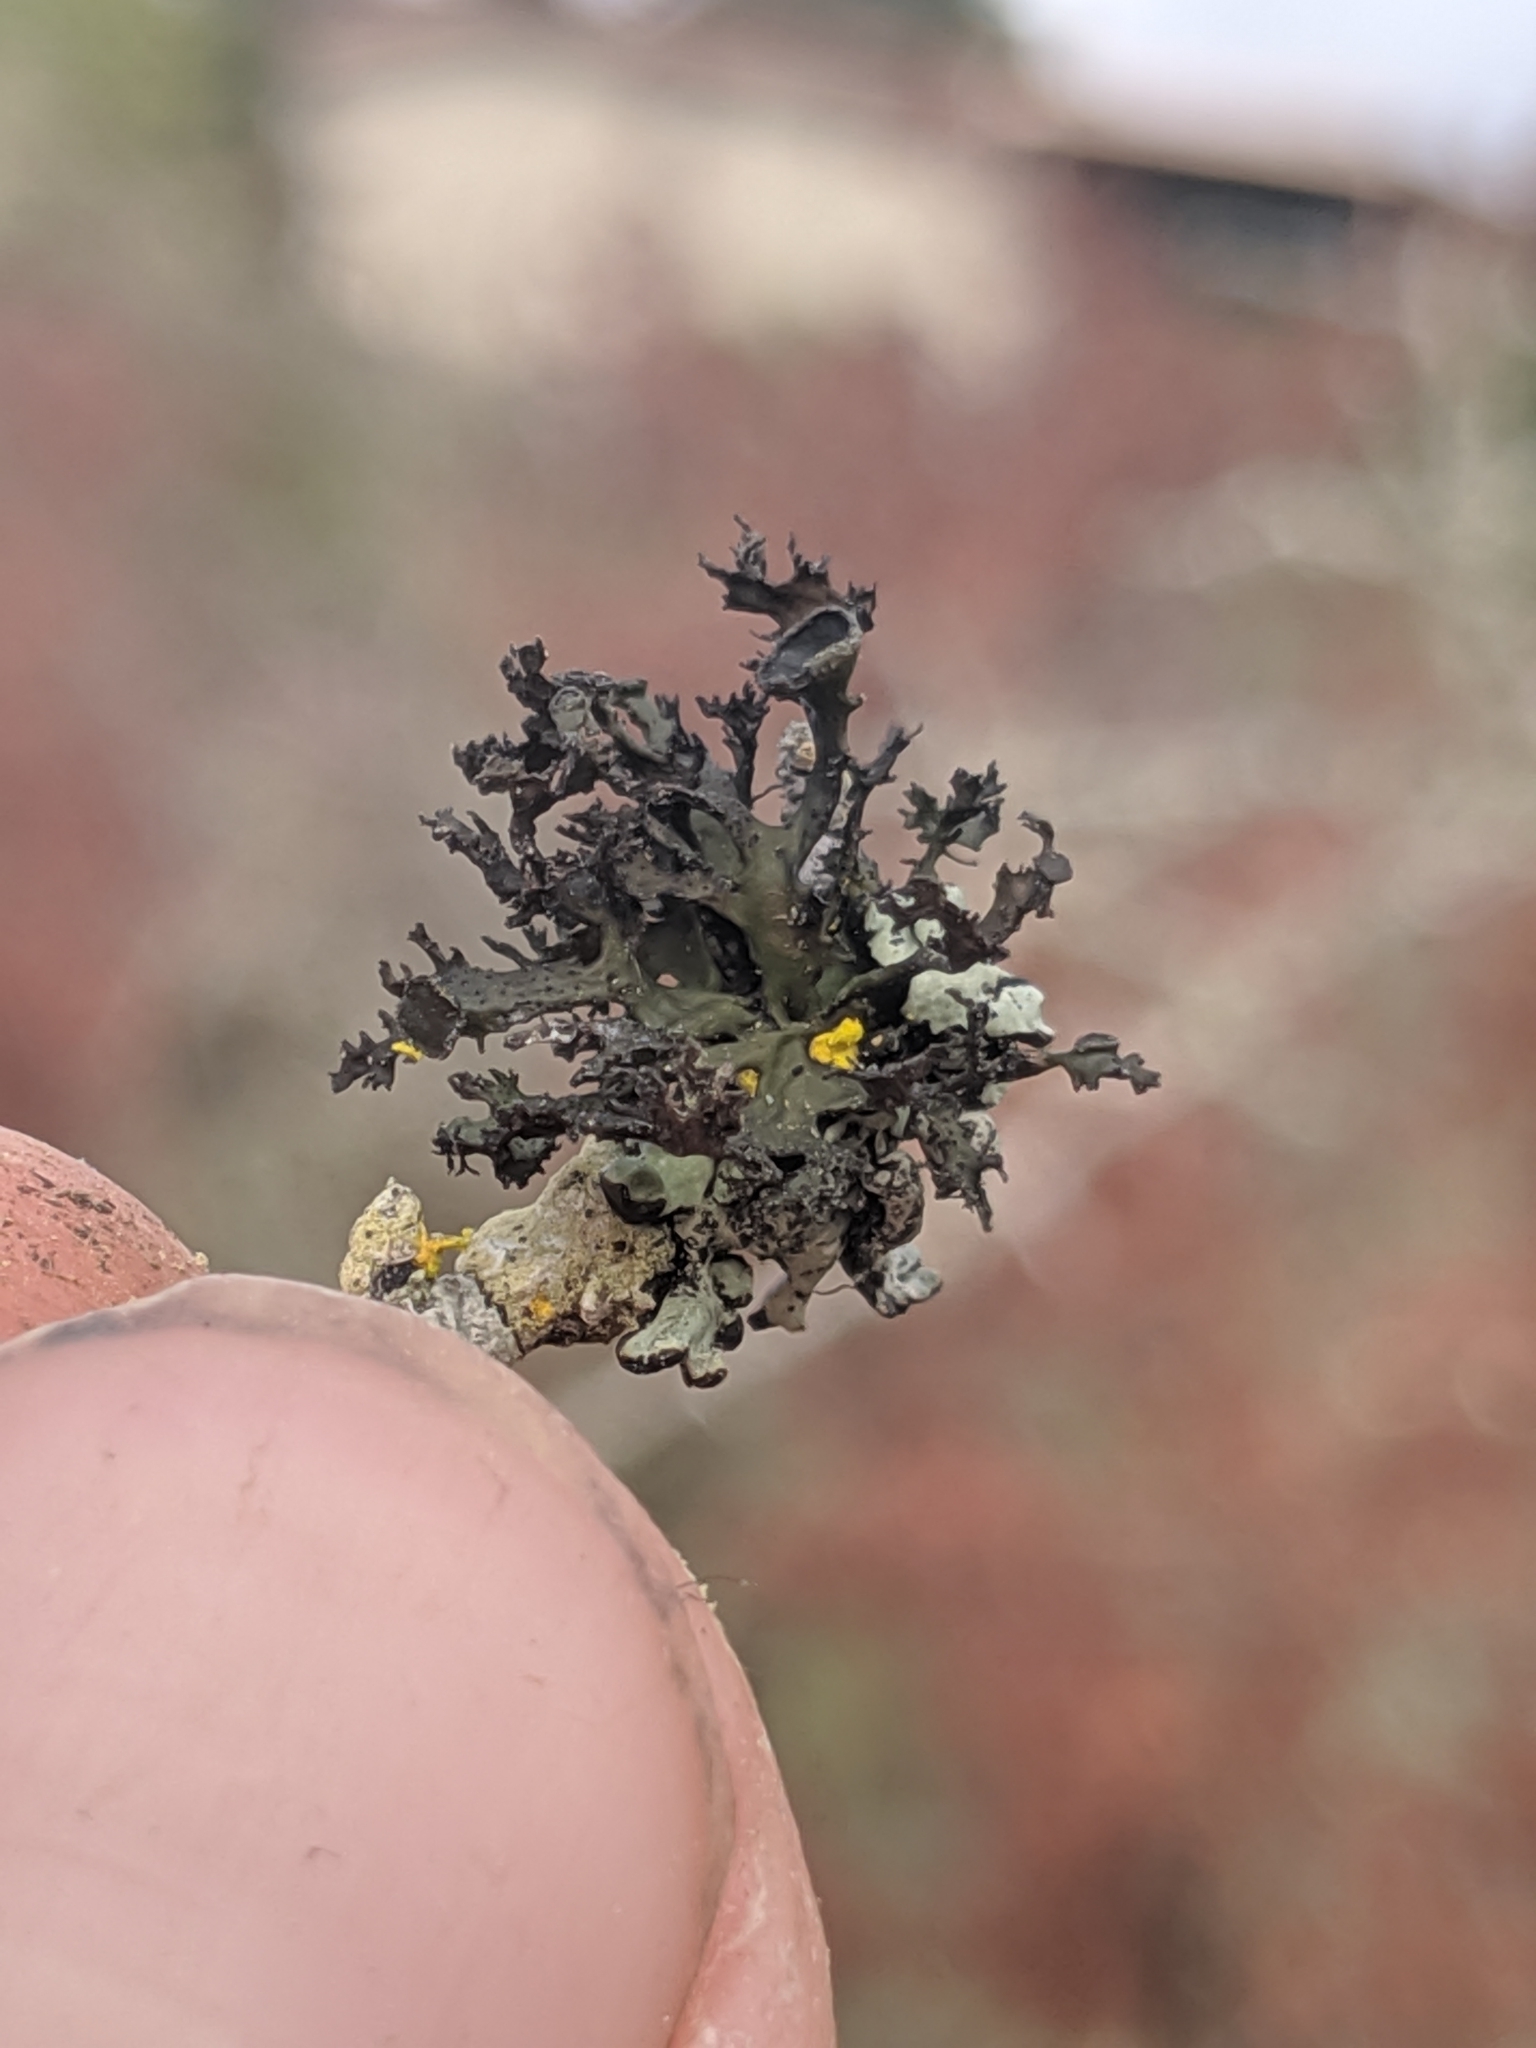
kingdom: Fungi
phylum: Ascomycota
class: Lecanoromycetes
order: Lecanorales
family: Parmeliaceae
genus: Nephromopsis
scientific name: Nephromopsis merrillii
